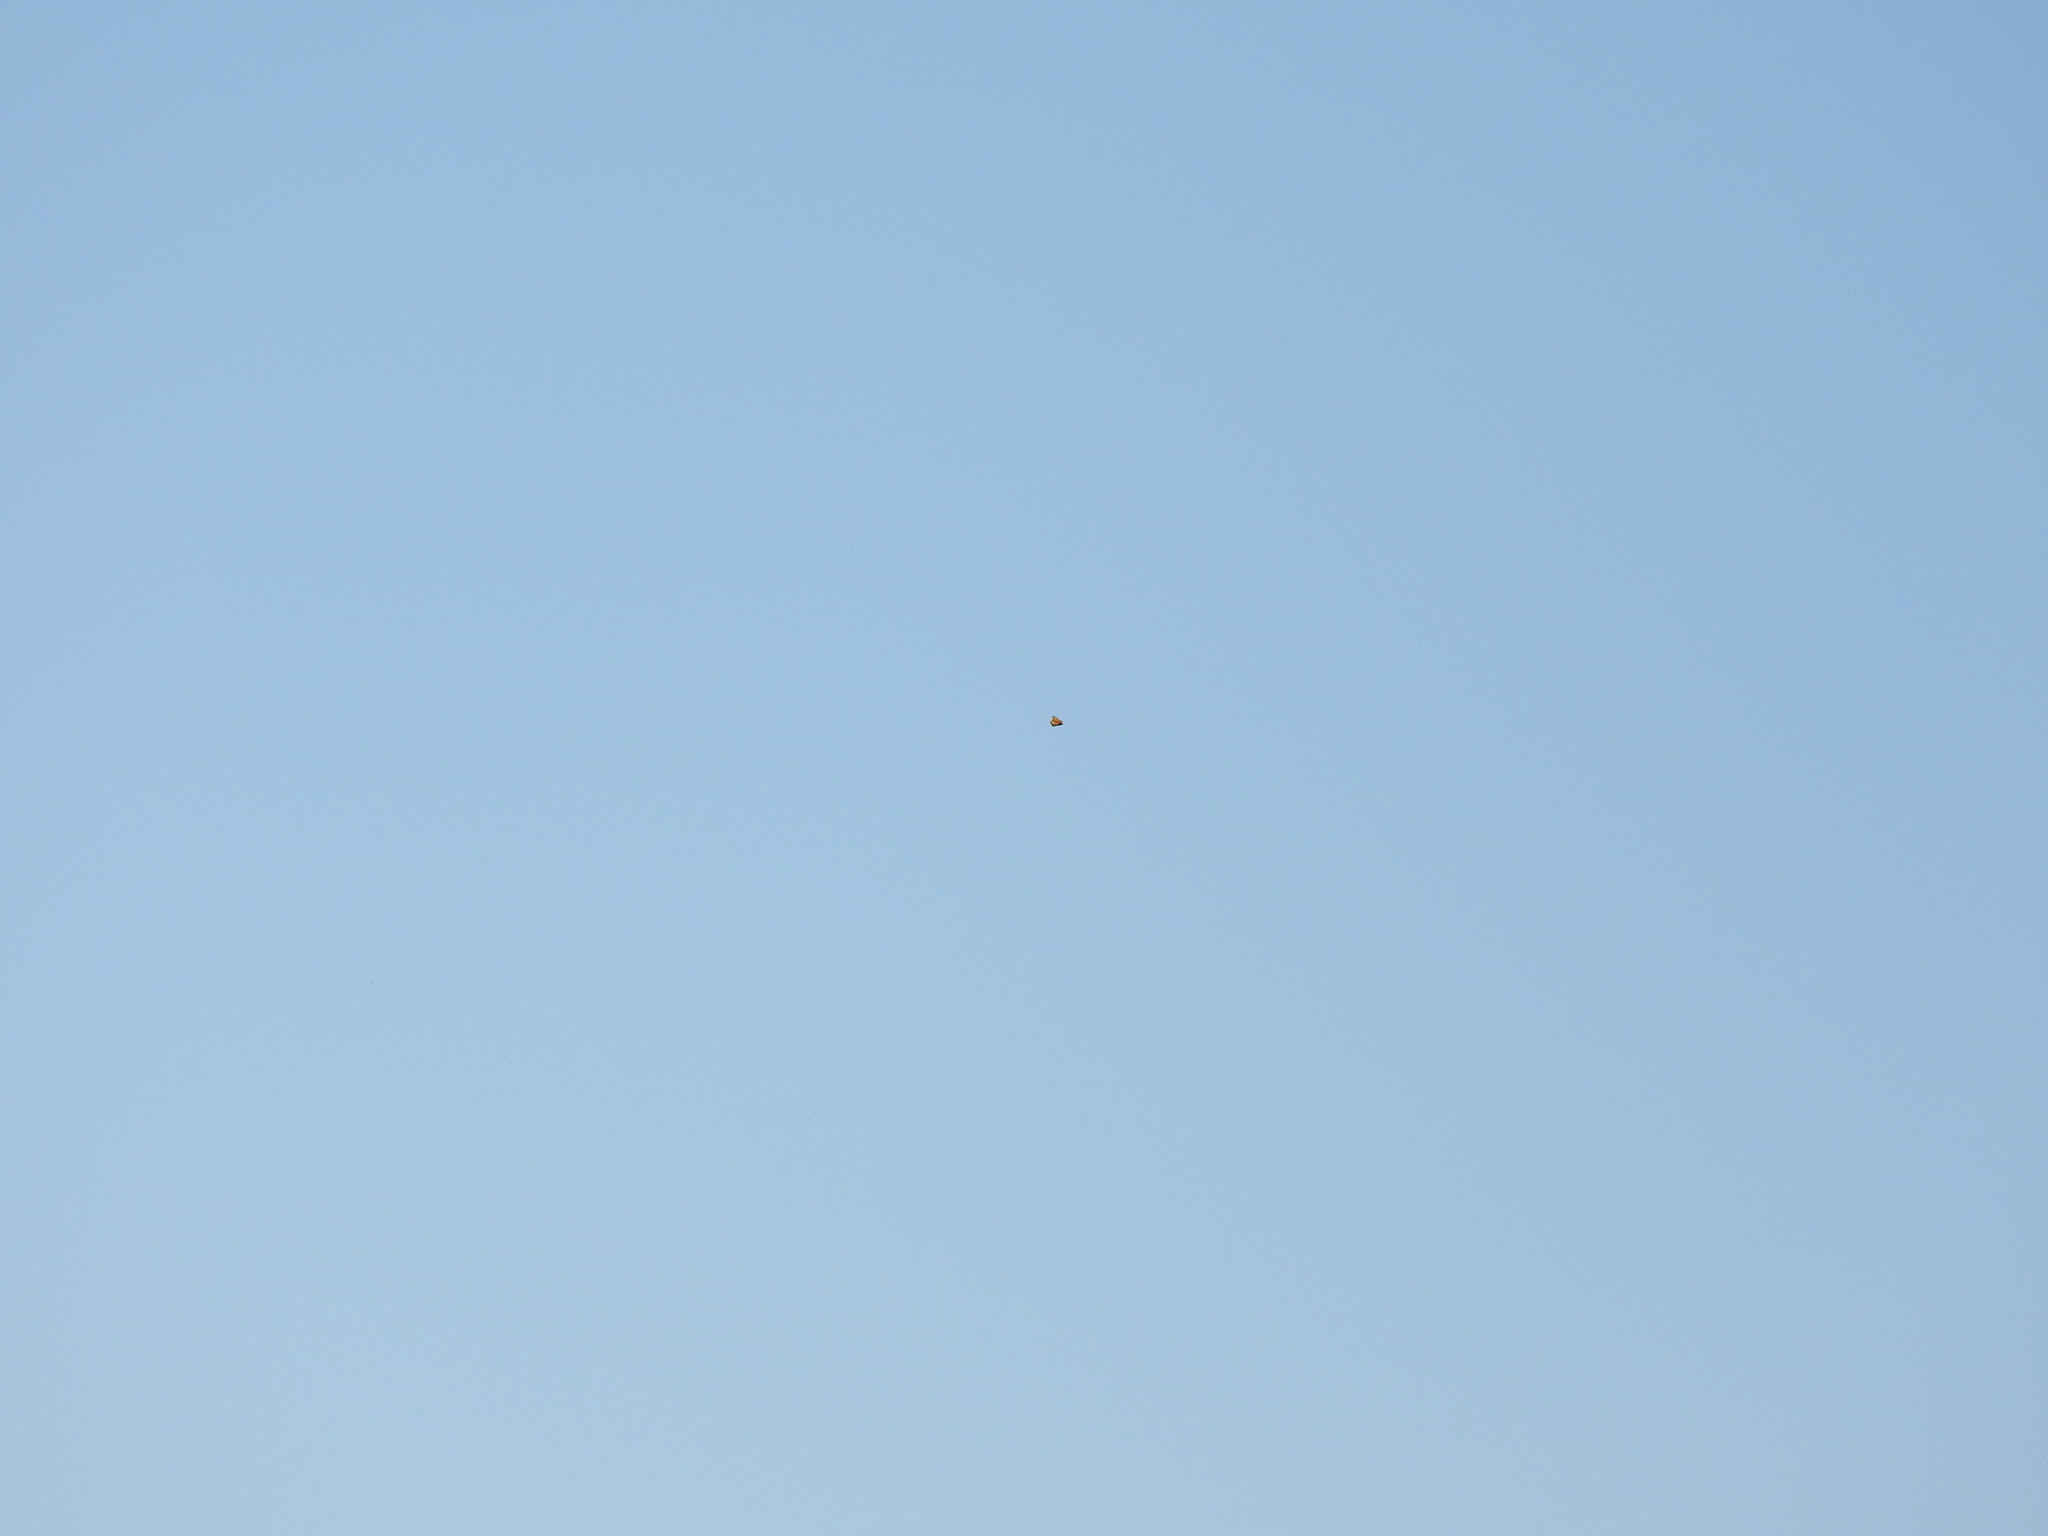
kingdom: Animalia
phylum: Arthropoda
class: Insecta
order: Lepidoptera
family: Nymphalidae
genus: Danaus
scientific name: Danaus plexippus
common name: Monarch
